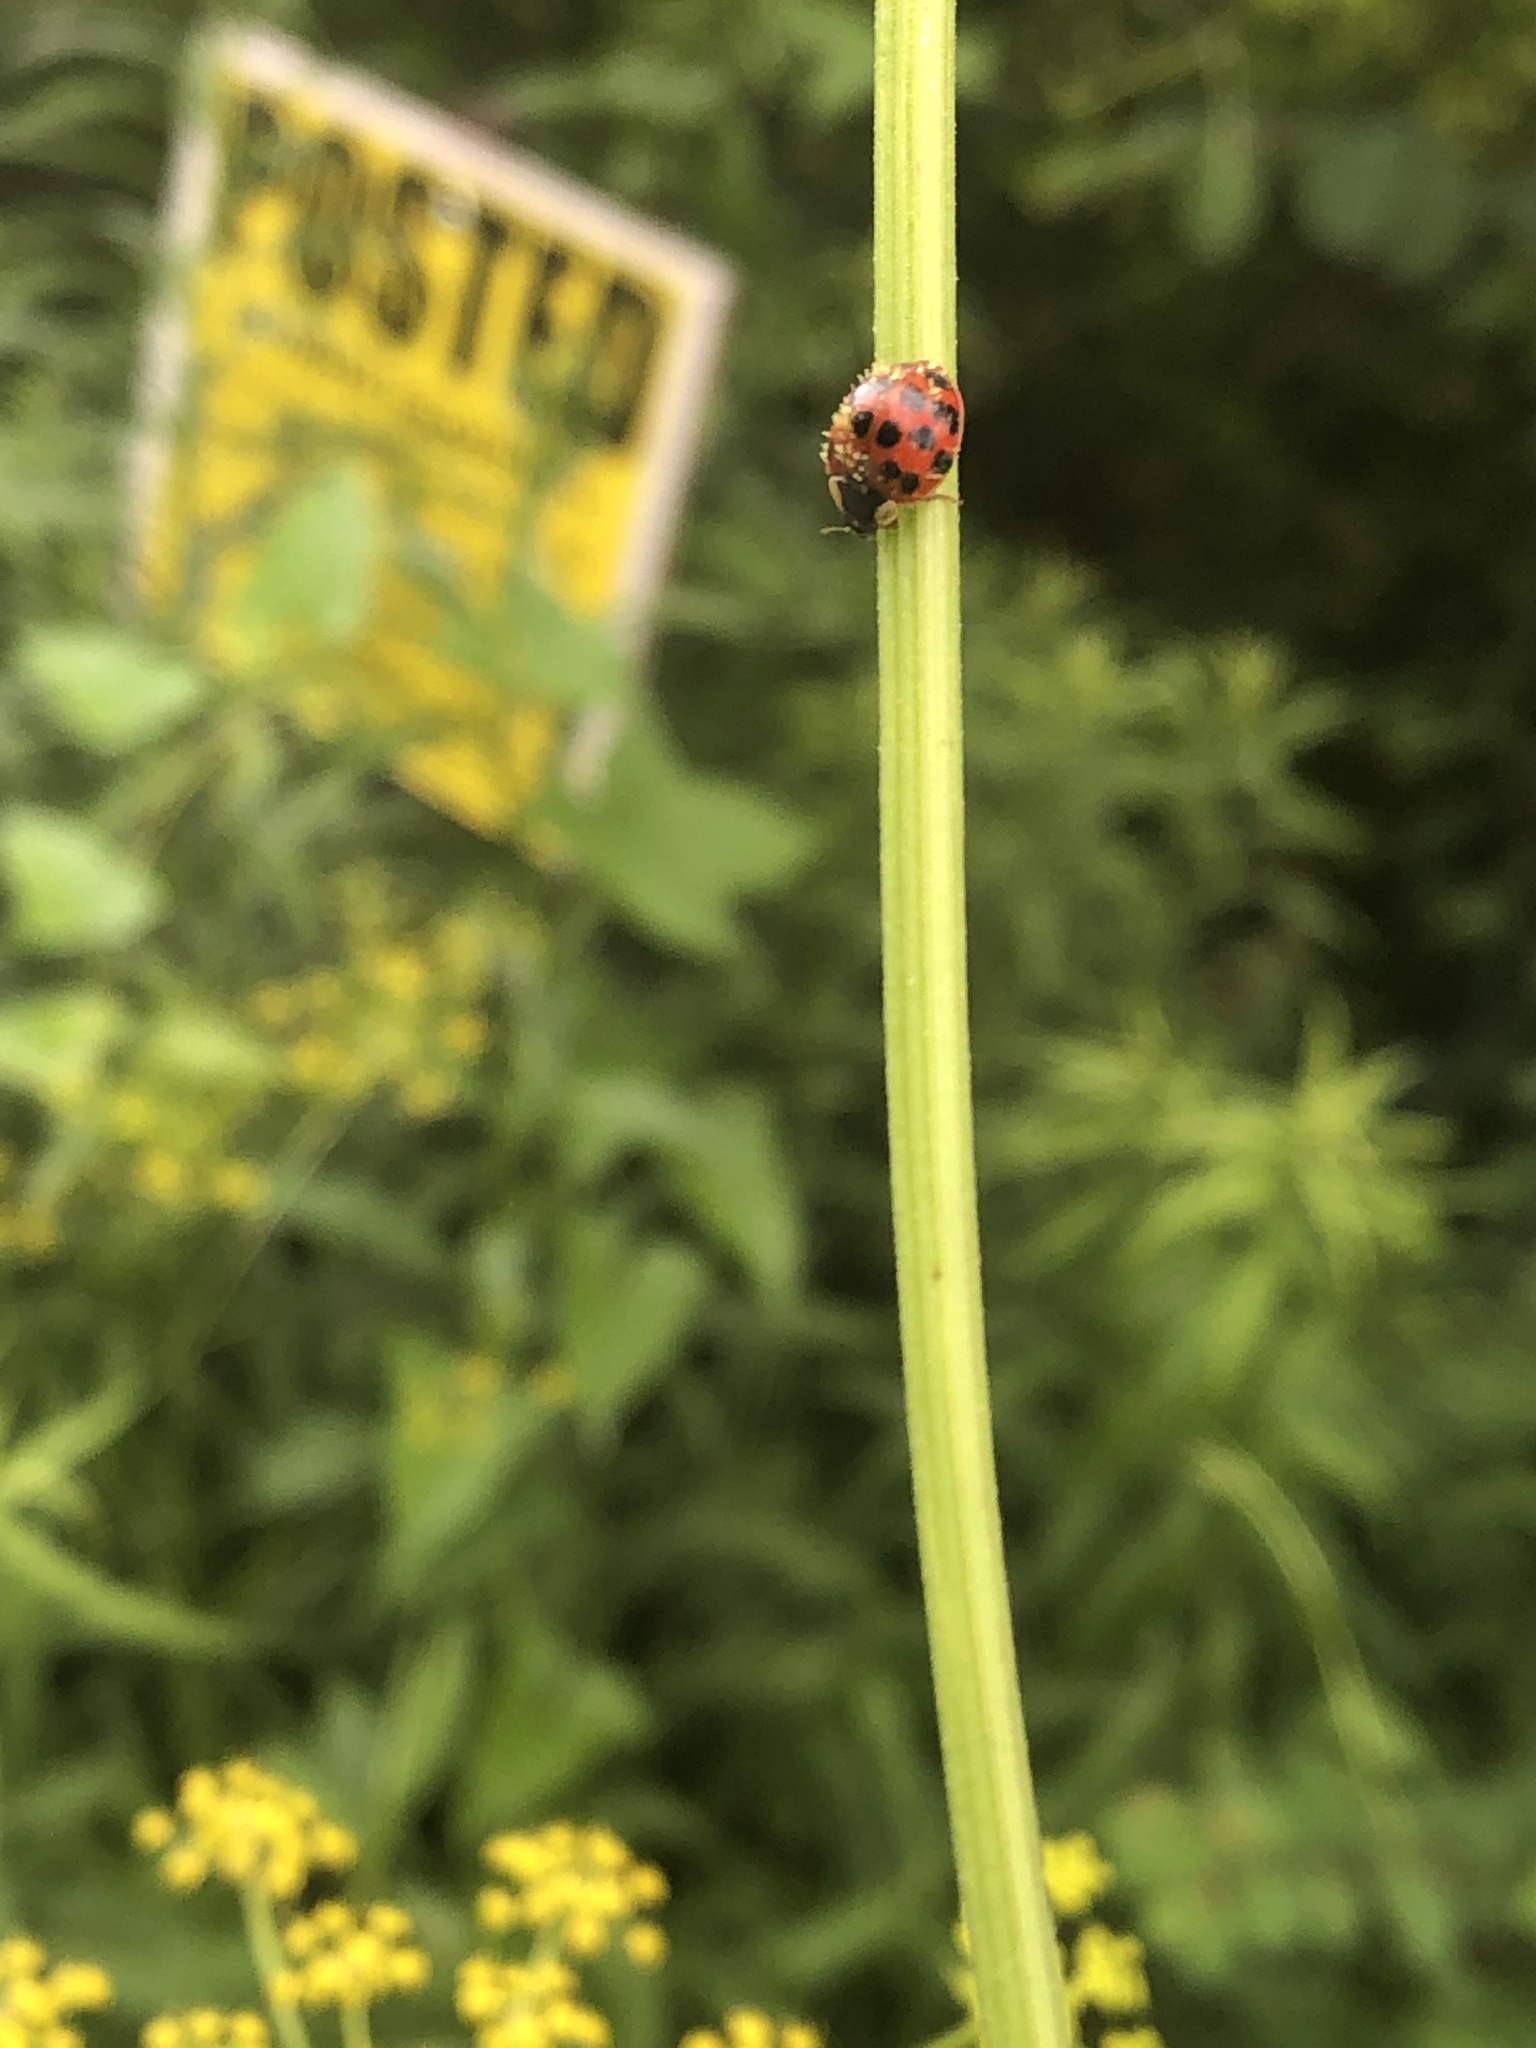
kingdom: Animalia
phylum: Arthropoda
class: Insecta
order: Coleoptera
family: Coccinellidae
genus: Harmonia
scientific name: Harmonia axyridis
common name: Harlequin ladybird
